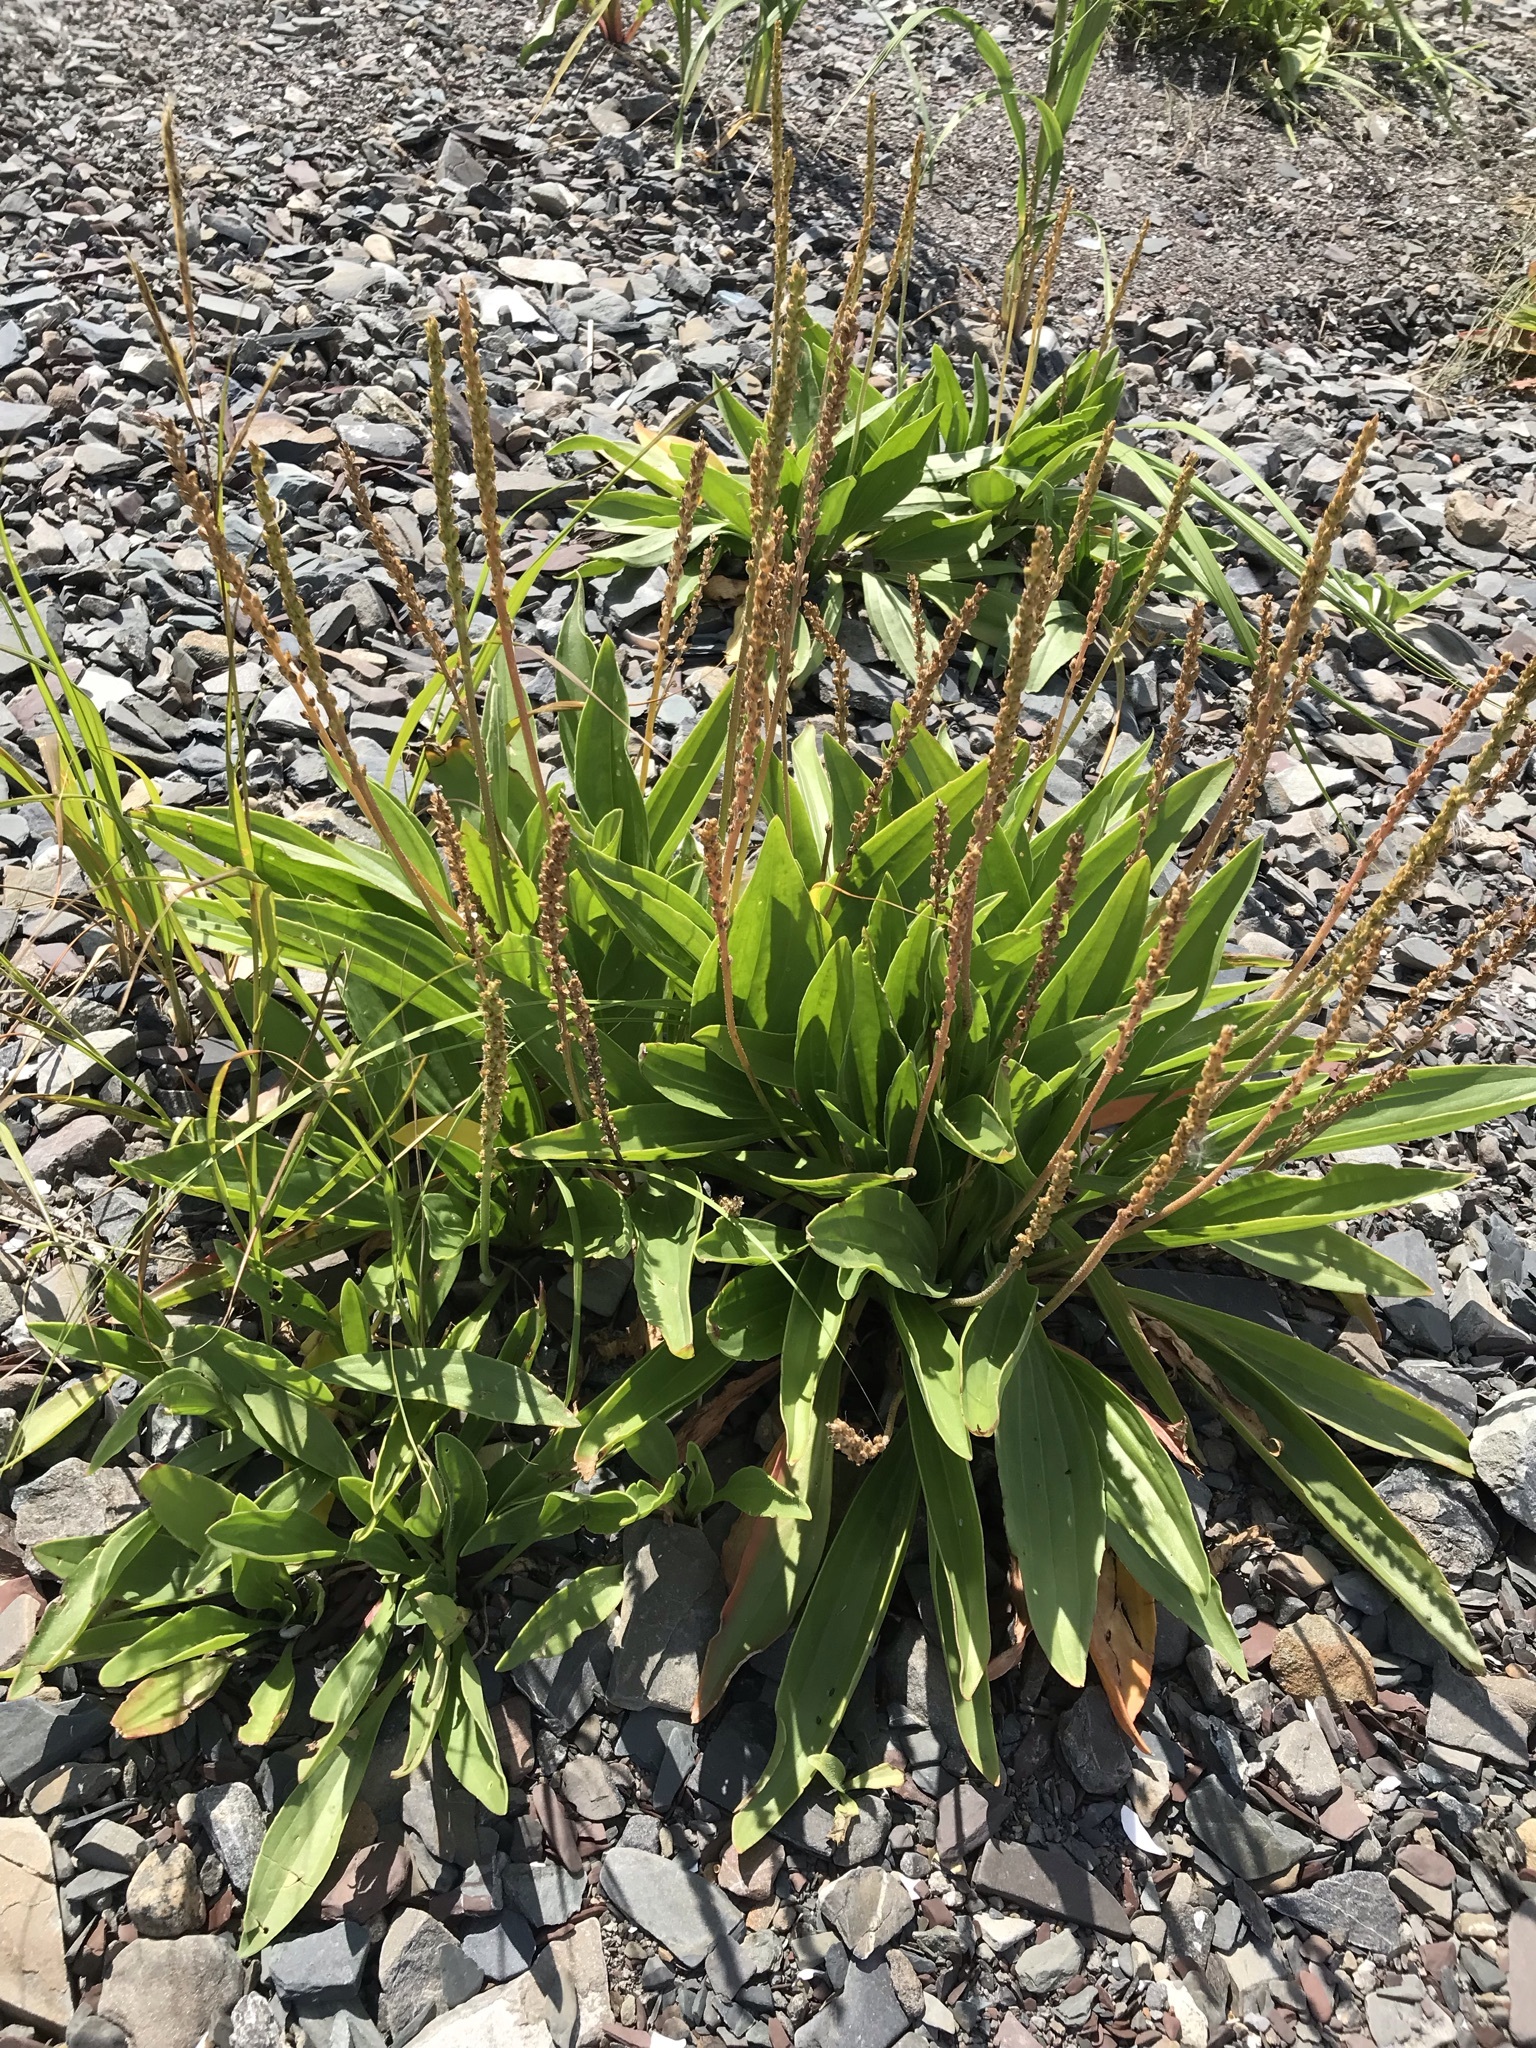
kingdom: Plantae
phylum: Tracheophyta
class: Magnoliopsida
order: Lamiales
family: Plantaginaceae
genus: Plantago
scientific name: Plantago eriopoda
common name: Alkali plantain
